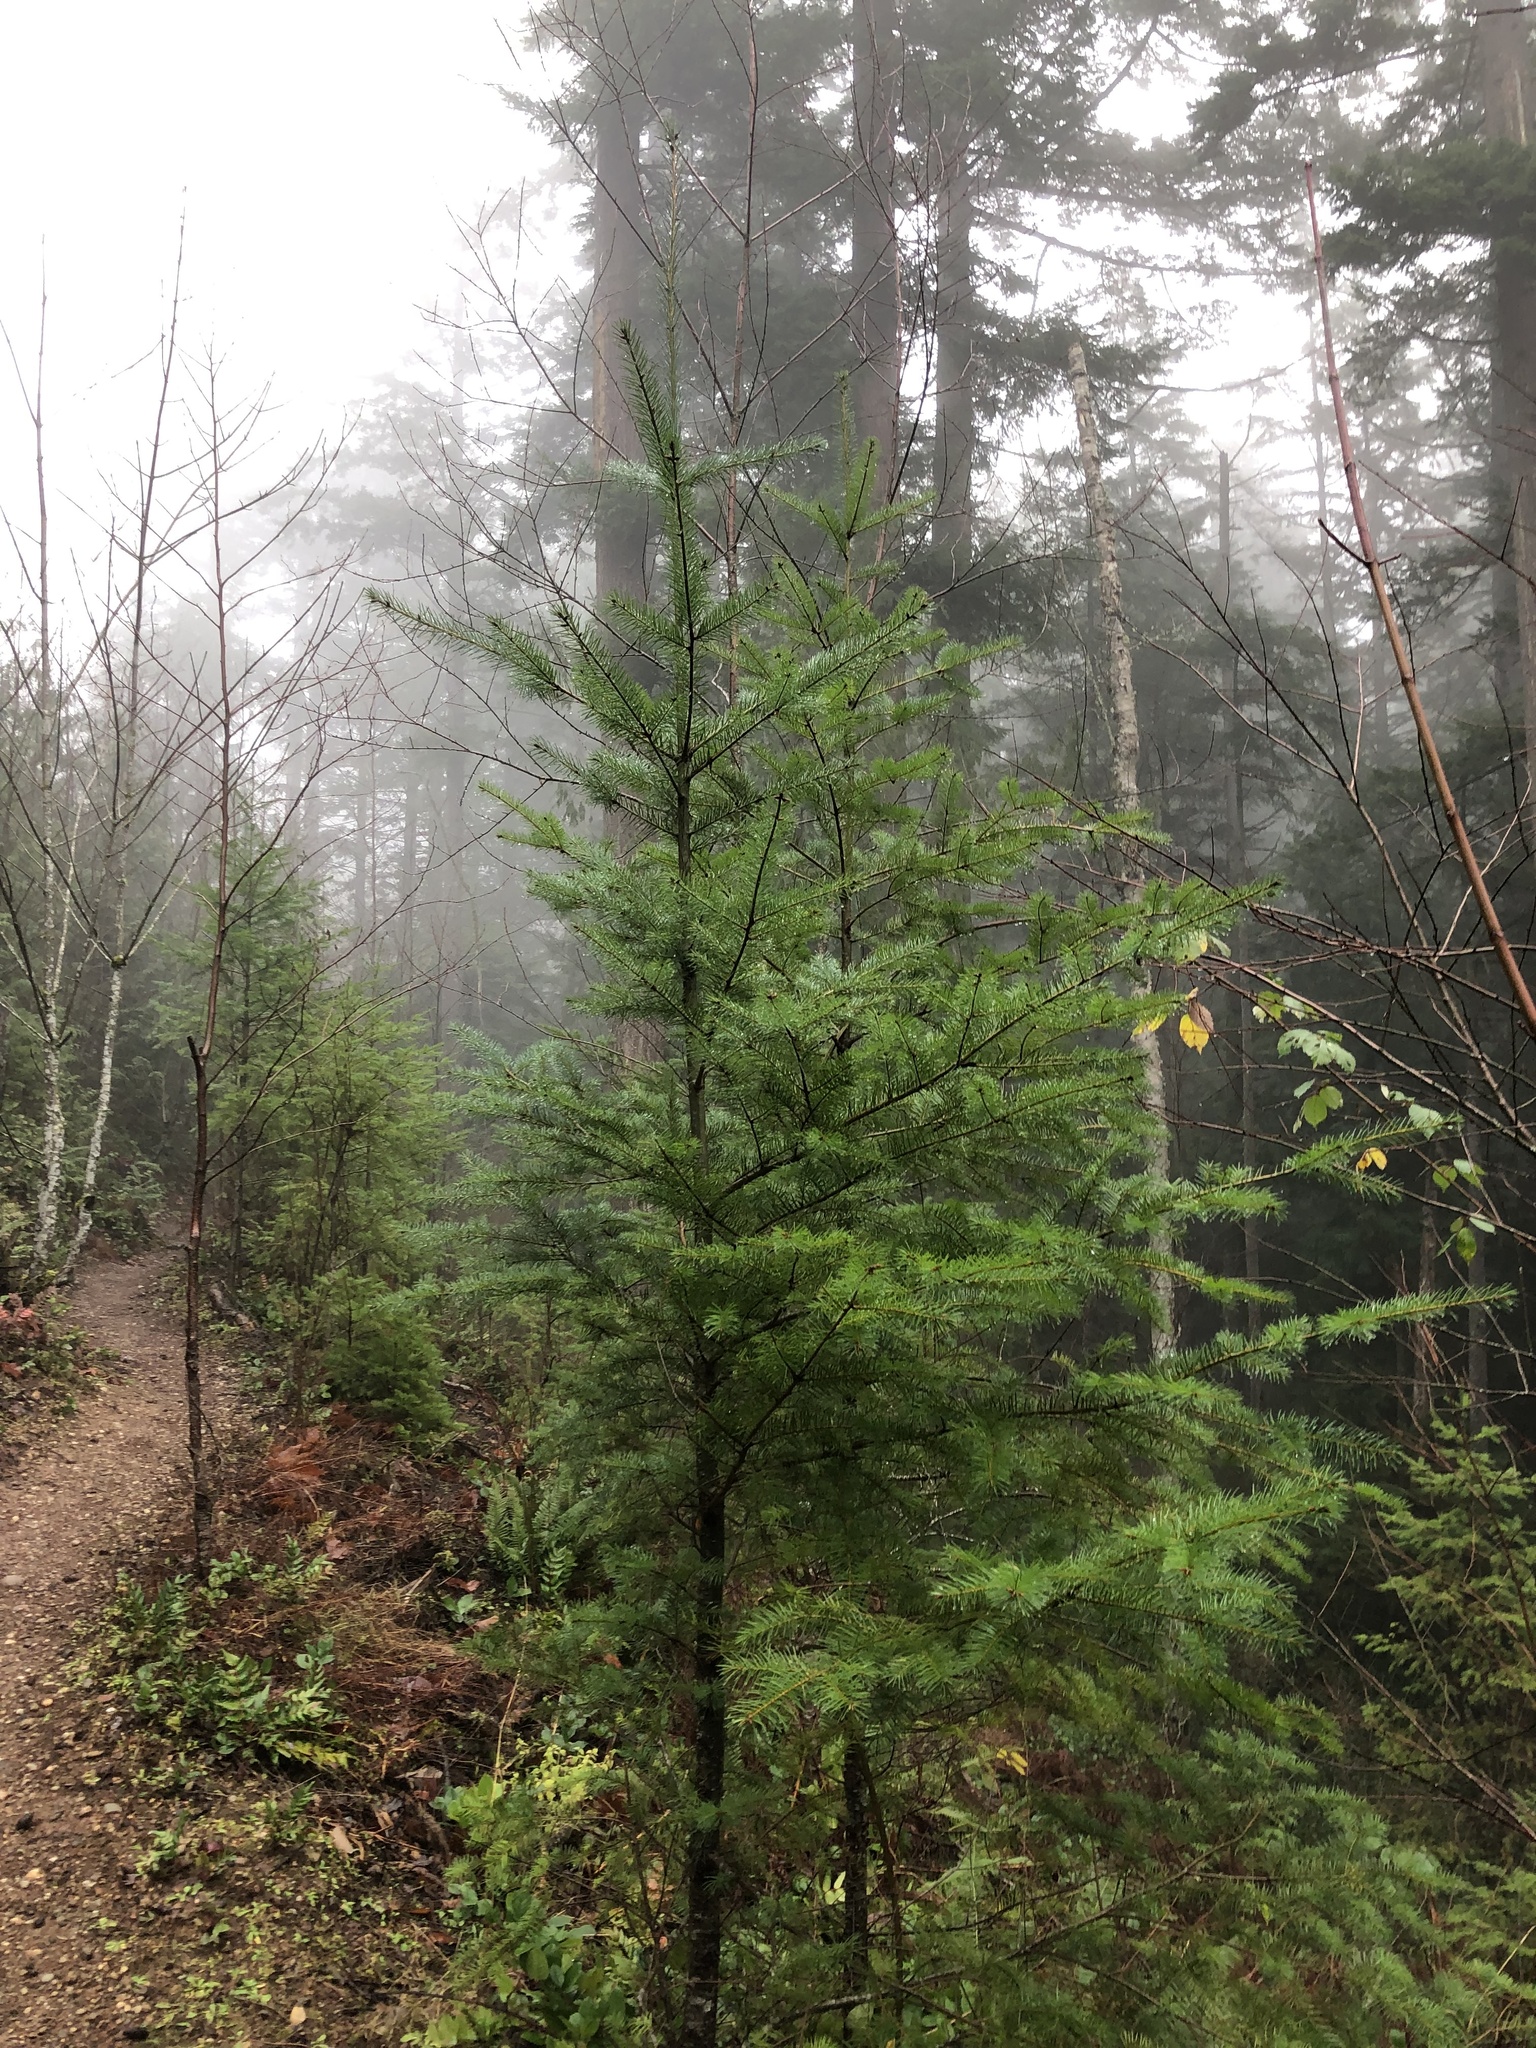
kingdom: Plantae
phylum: Tracheophyta
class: Pinopsida
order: Pinales
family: Pinaceae
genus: Pseudotsuga
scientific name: Pseudotsuga menziesii
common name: Douglas fir
